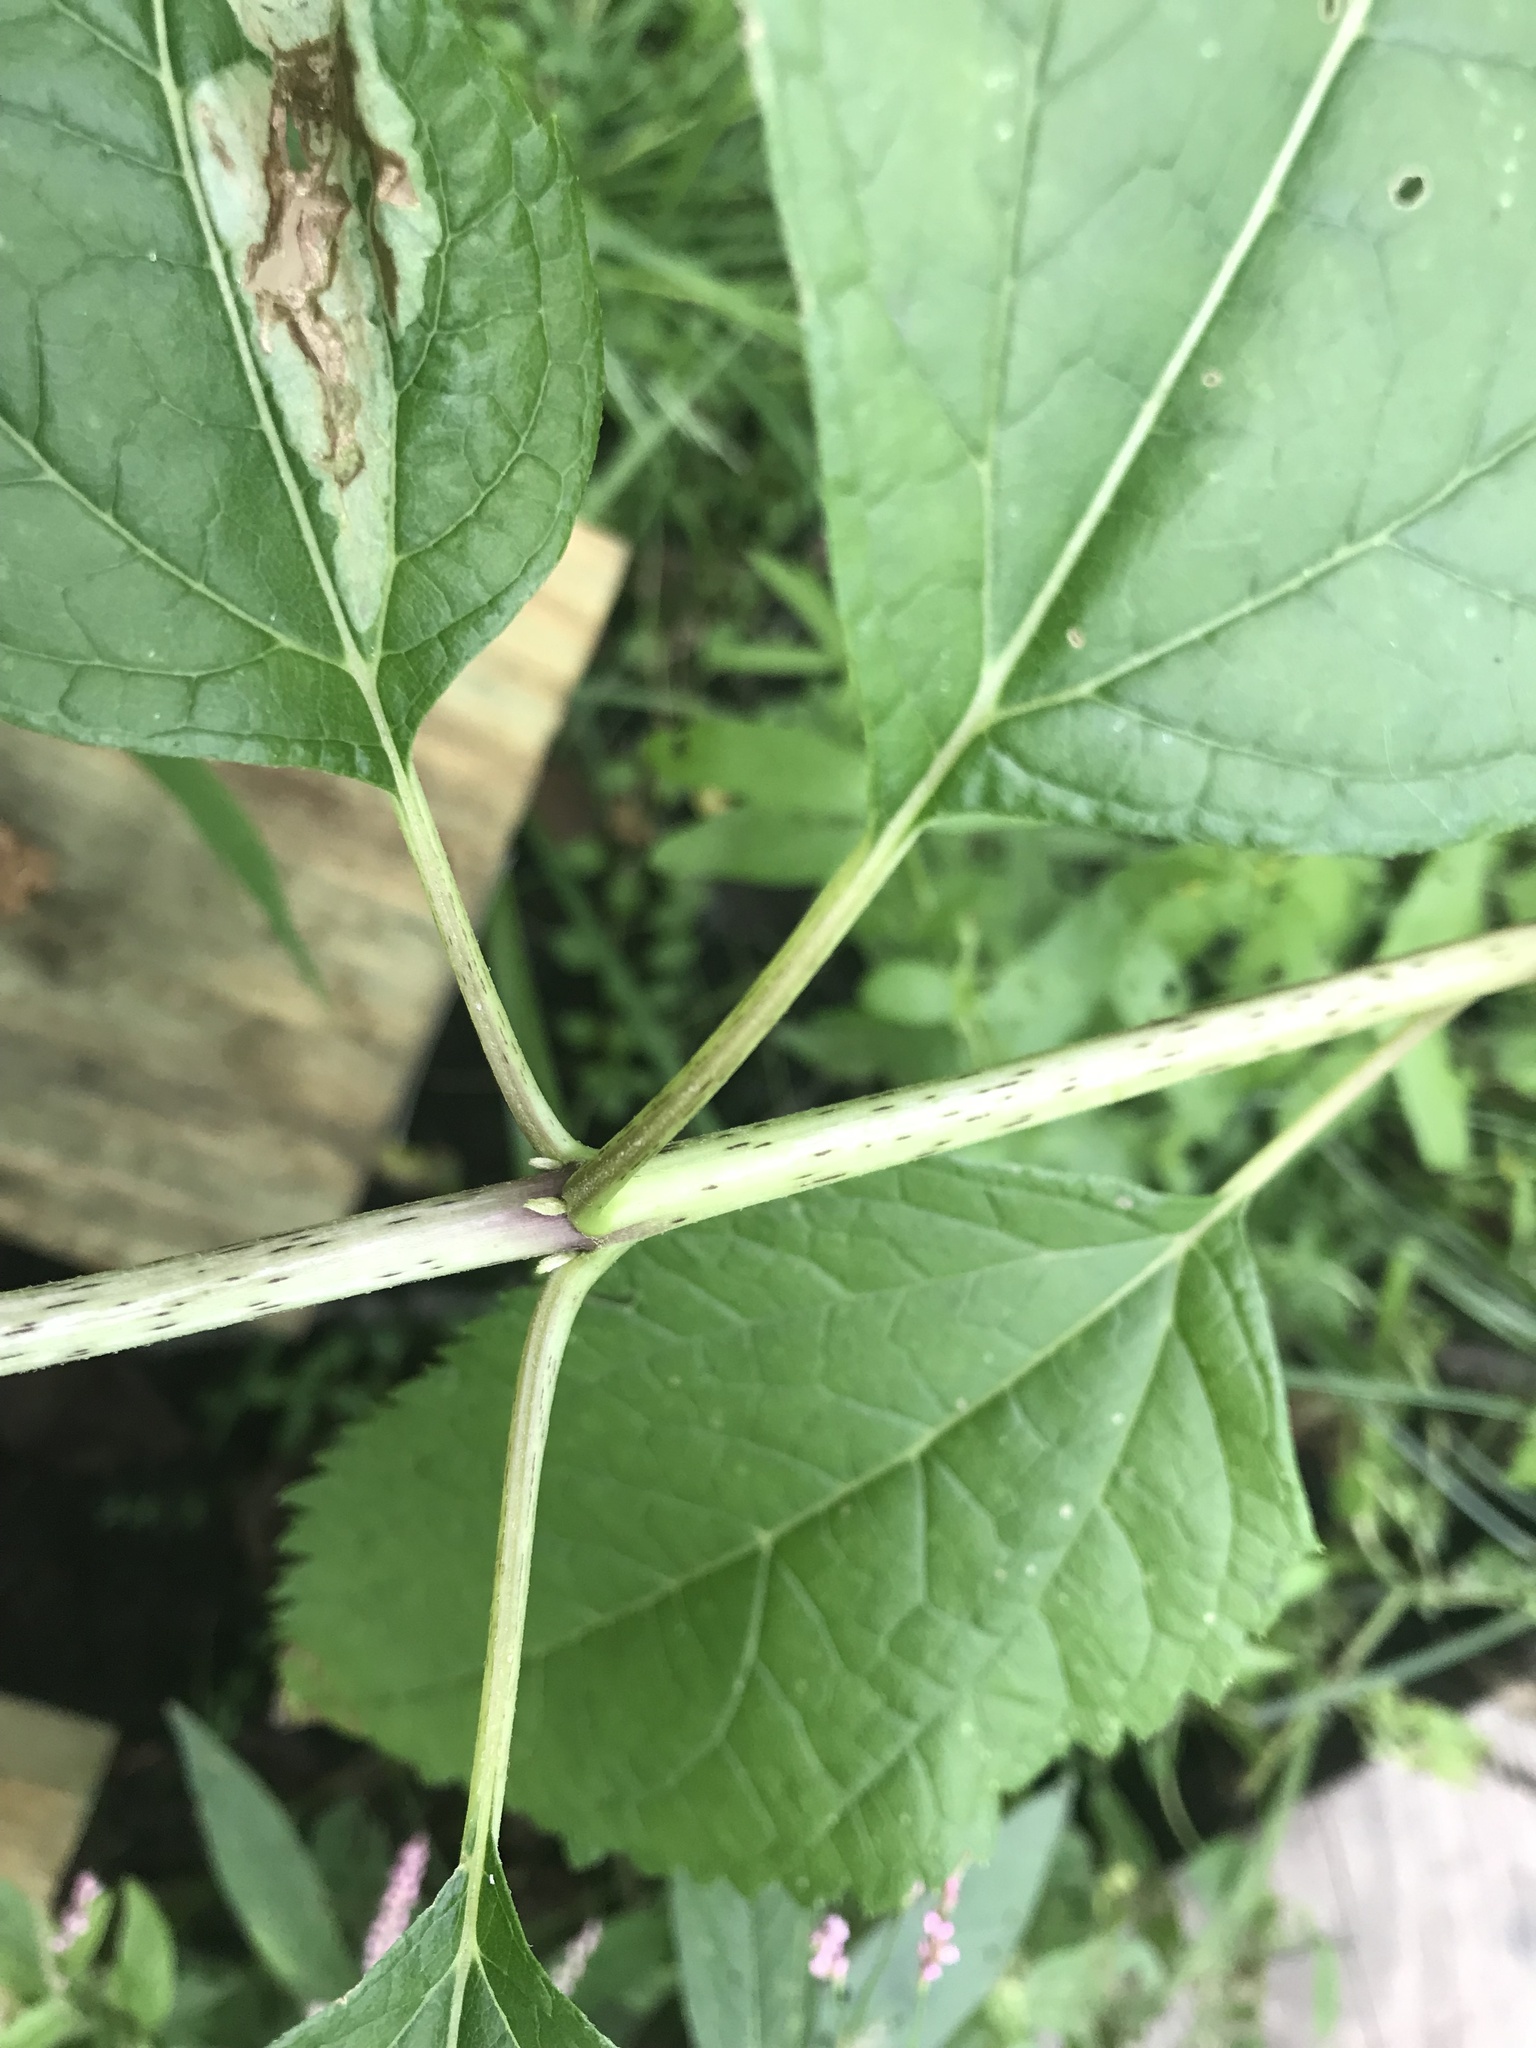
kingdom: Plantae
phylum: Tracheophyta
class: Magnoliopsida
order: Asterales
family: Asteraceae
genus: Eutrochium
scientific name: Eutrochium dubium
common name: Coastal plain joe pye weed
